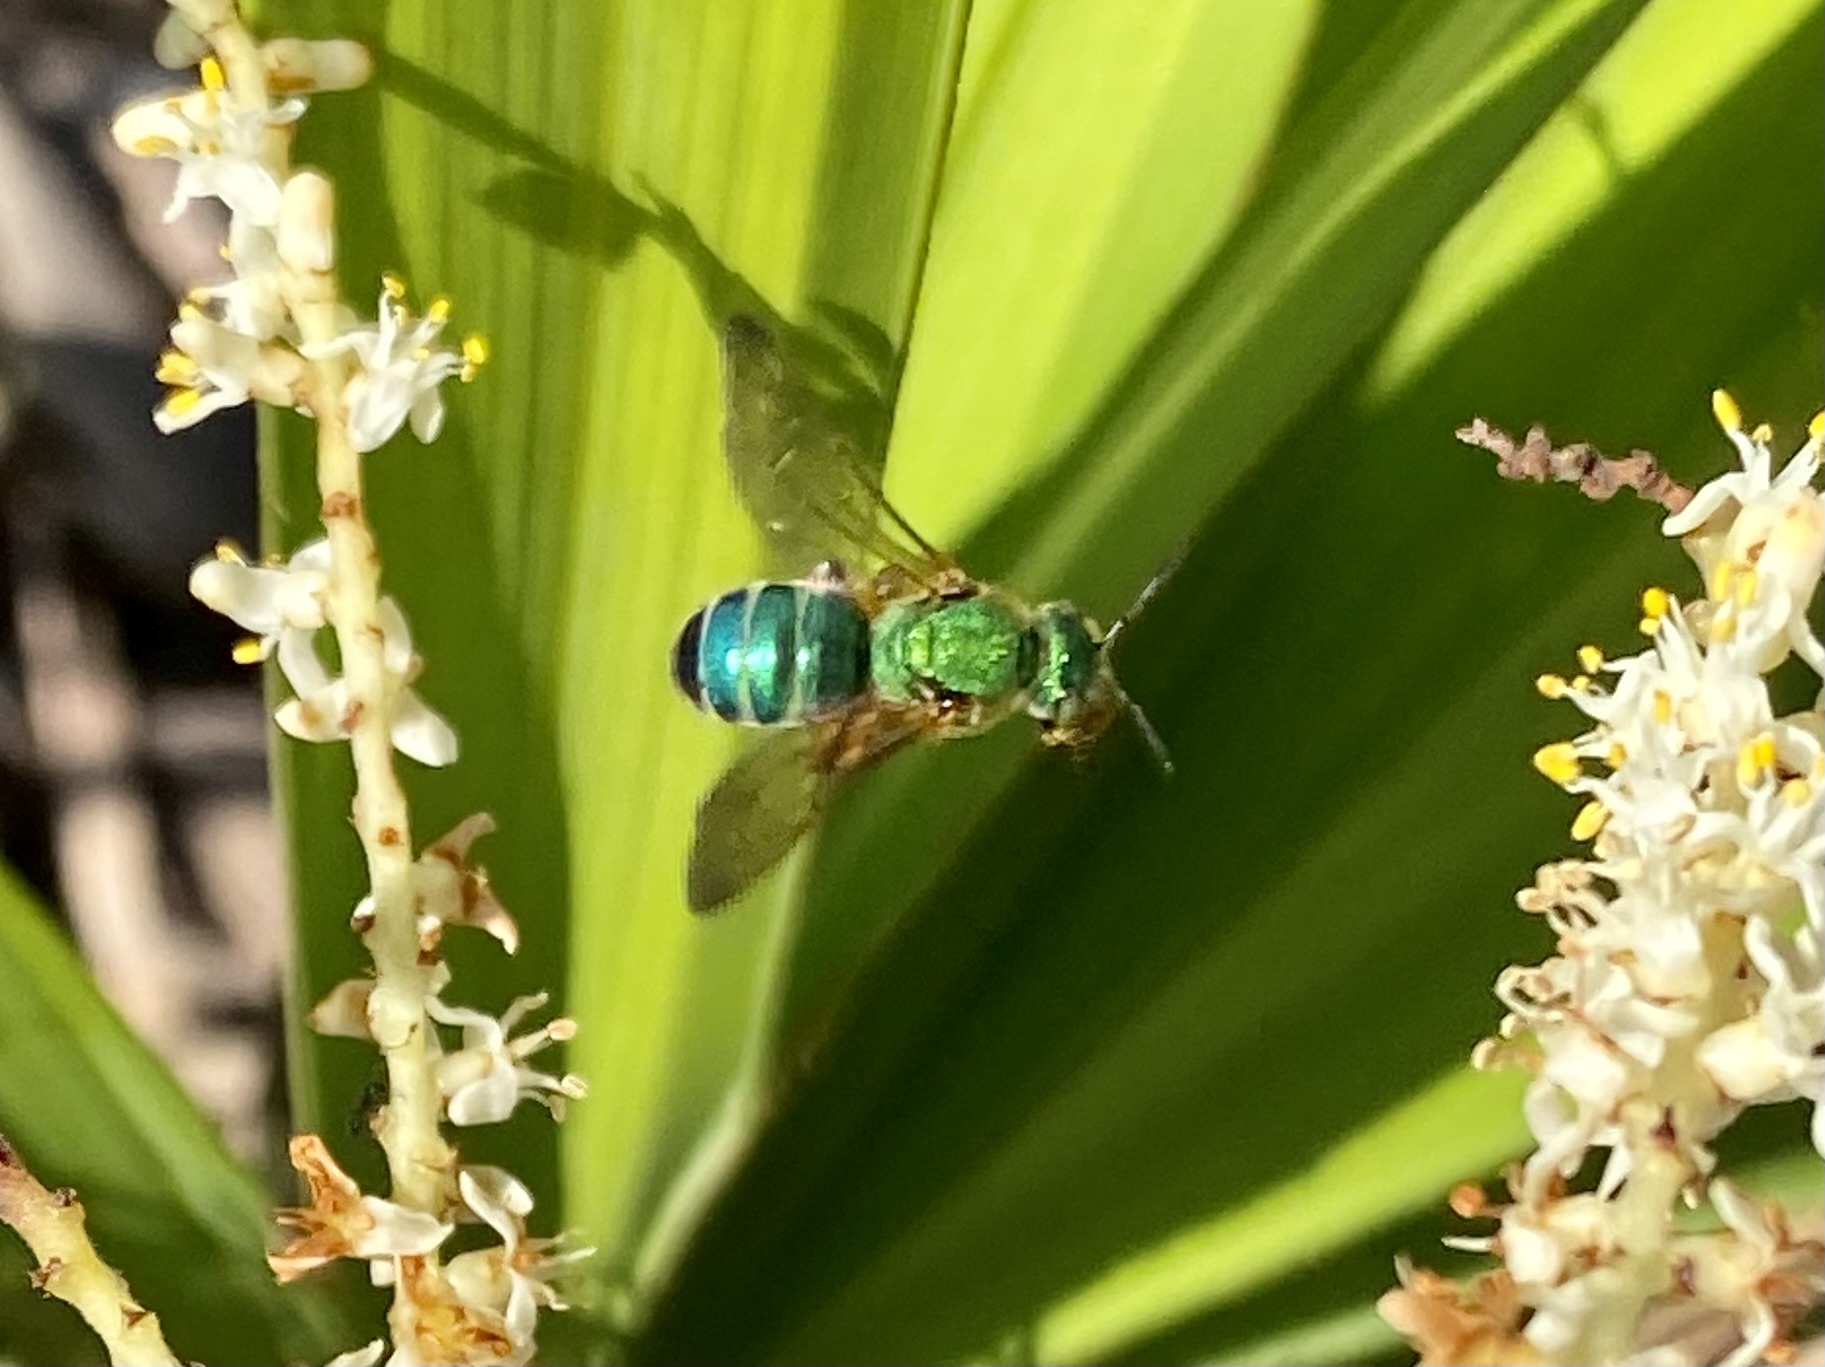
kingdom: Animalia
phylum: Arthropoda
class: Insecta
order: Hymenoptera
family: Halictidae
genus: Agapostemon
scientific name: Agapostemon splendens
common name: Brown-winged striped sweat bee
